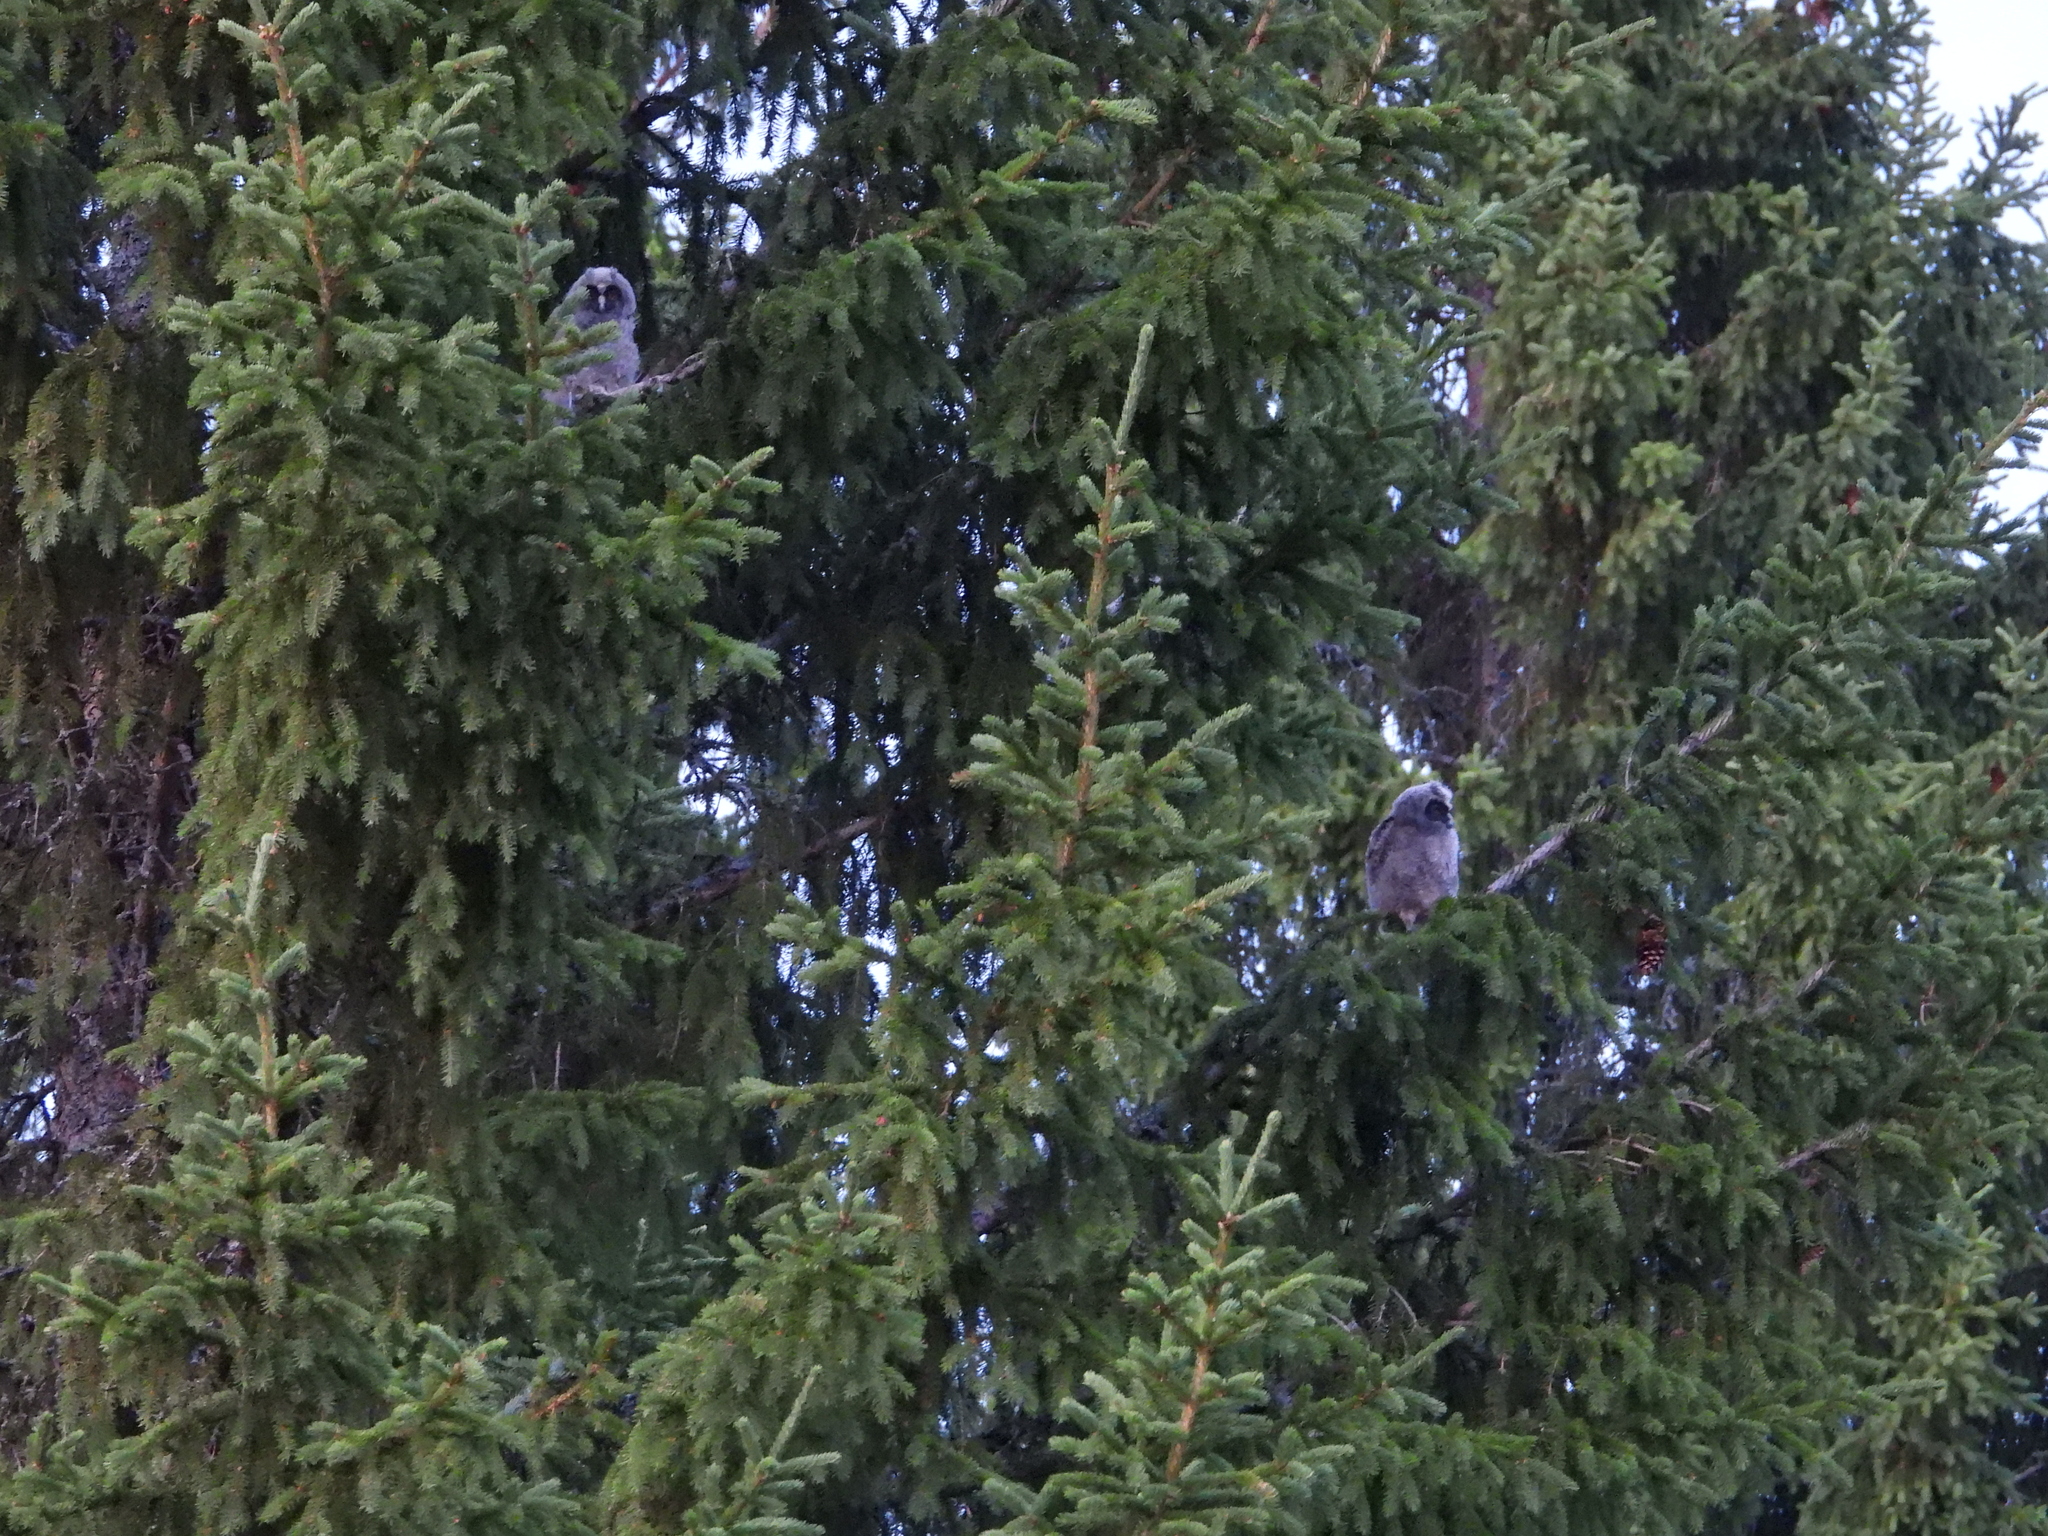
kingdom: Animalia
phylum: Chordata
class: Aves
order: Strigiformes
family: Strigidae
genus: Asio
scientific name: Asio otus
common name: Long-eared owl
